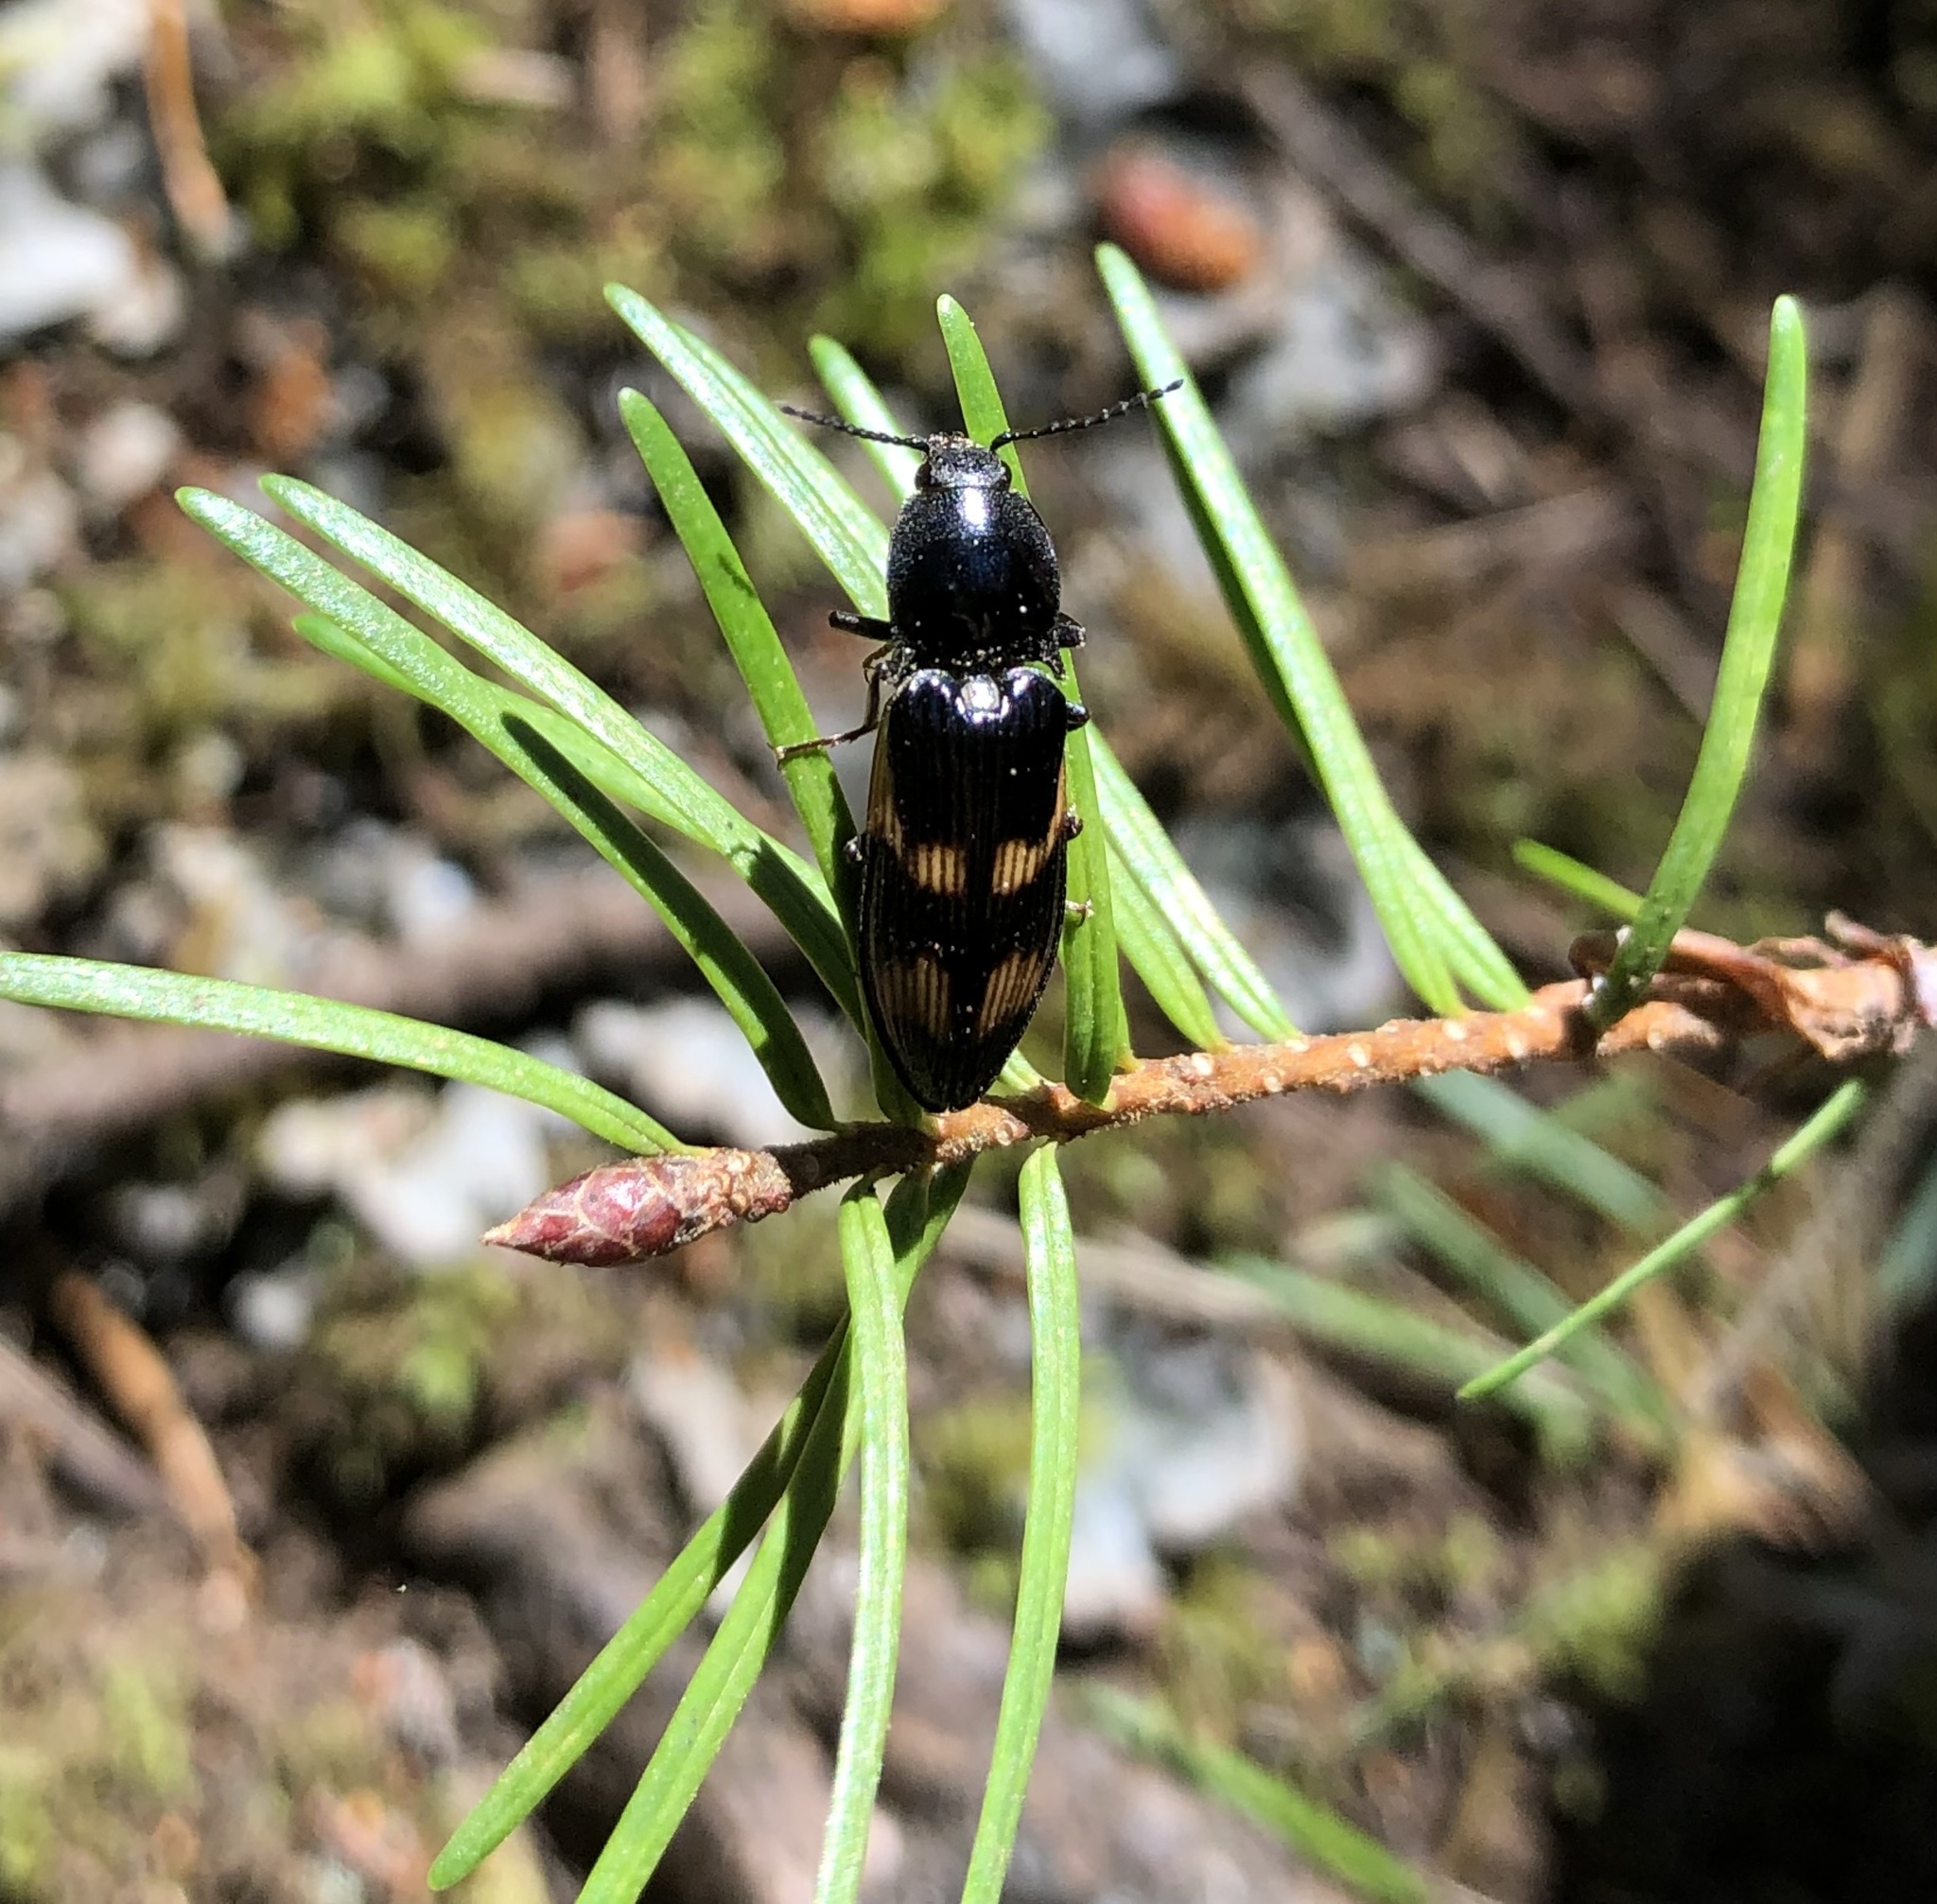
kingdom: Animalia
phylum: Arthropoda
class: Insecta
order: Coleoptera
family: Elateridae
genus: Selatosomus
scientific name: Selatosomus suckleyi
